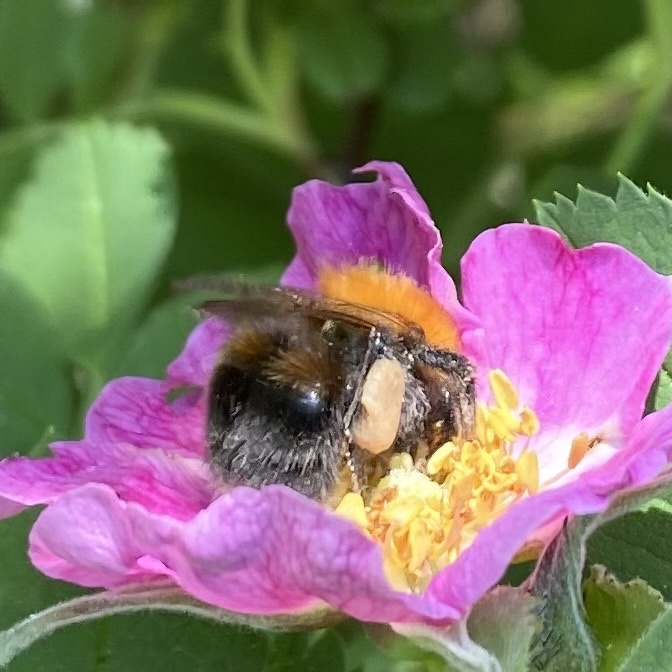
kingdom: Animalia
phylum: Arthropoda
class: Insecta
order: Hymenoptera
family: Apidae
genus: Bombus
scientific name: Bombus hypnorum
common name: New garden bumblebee
